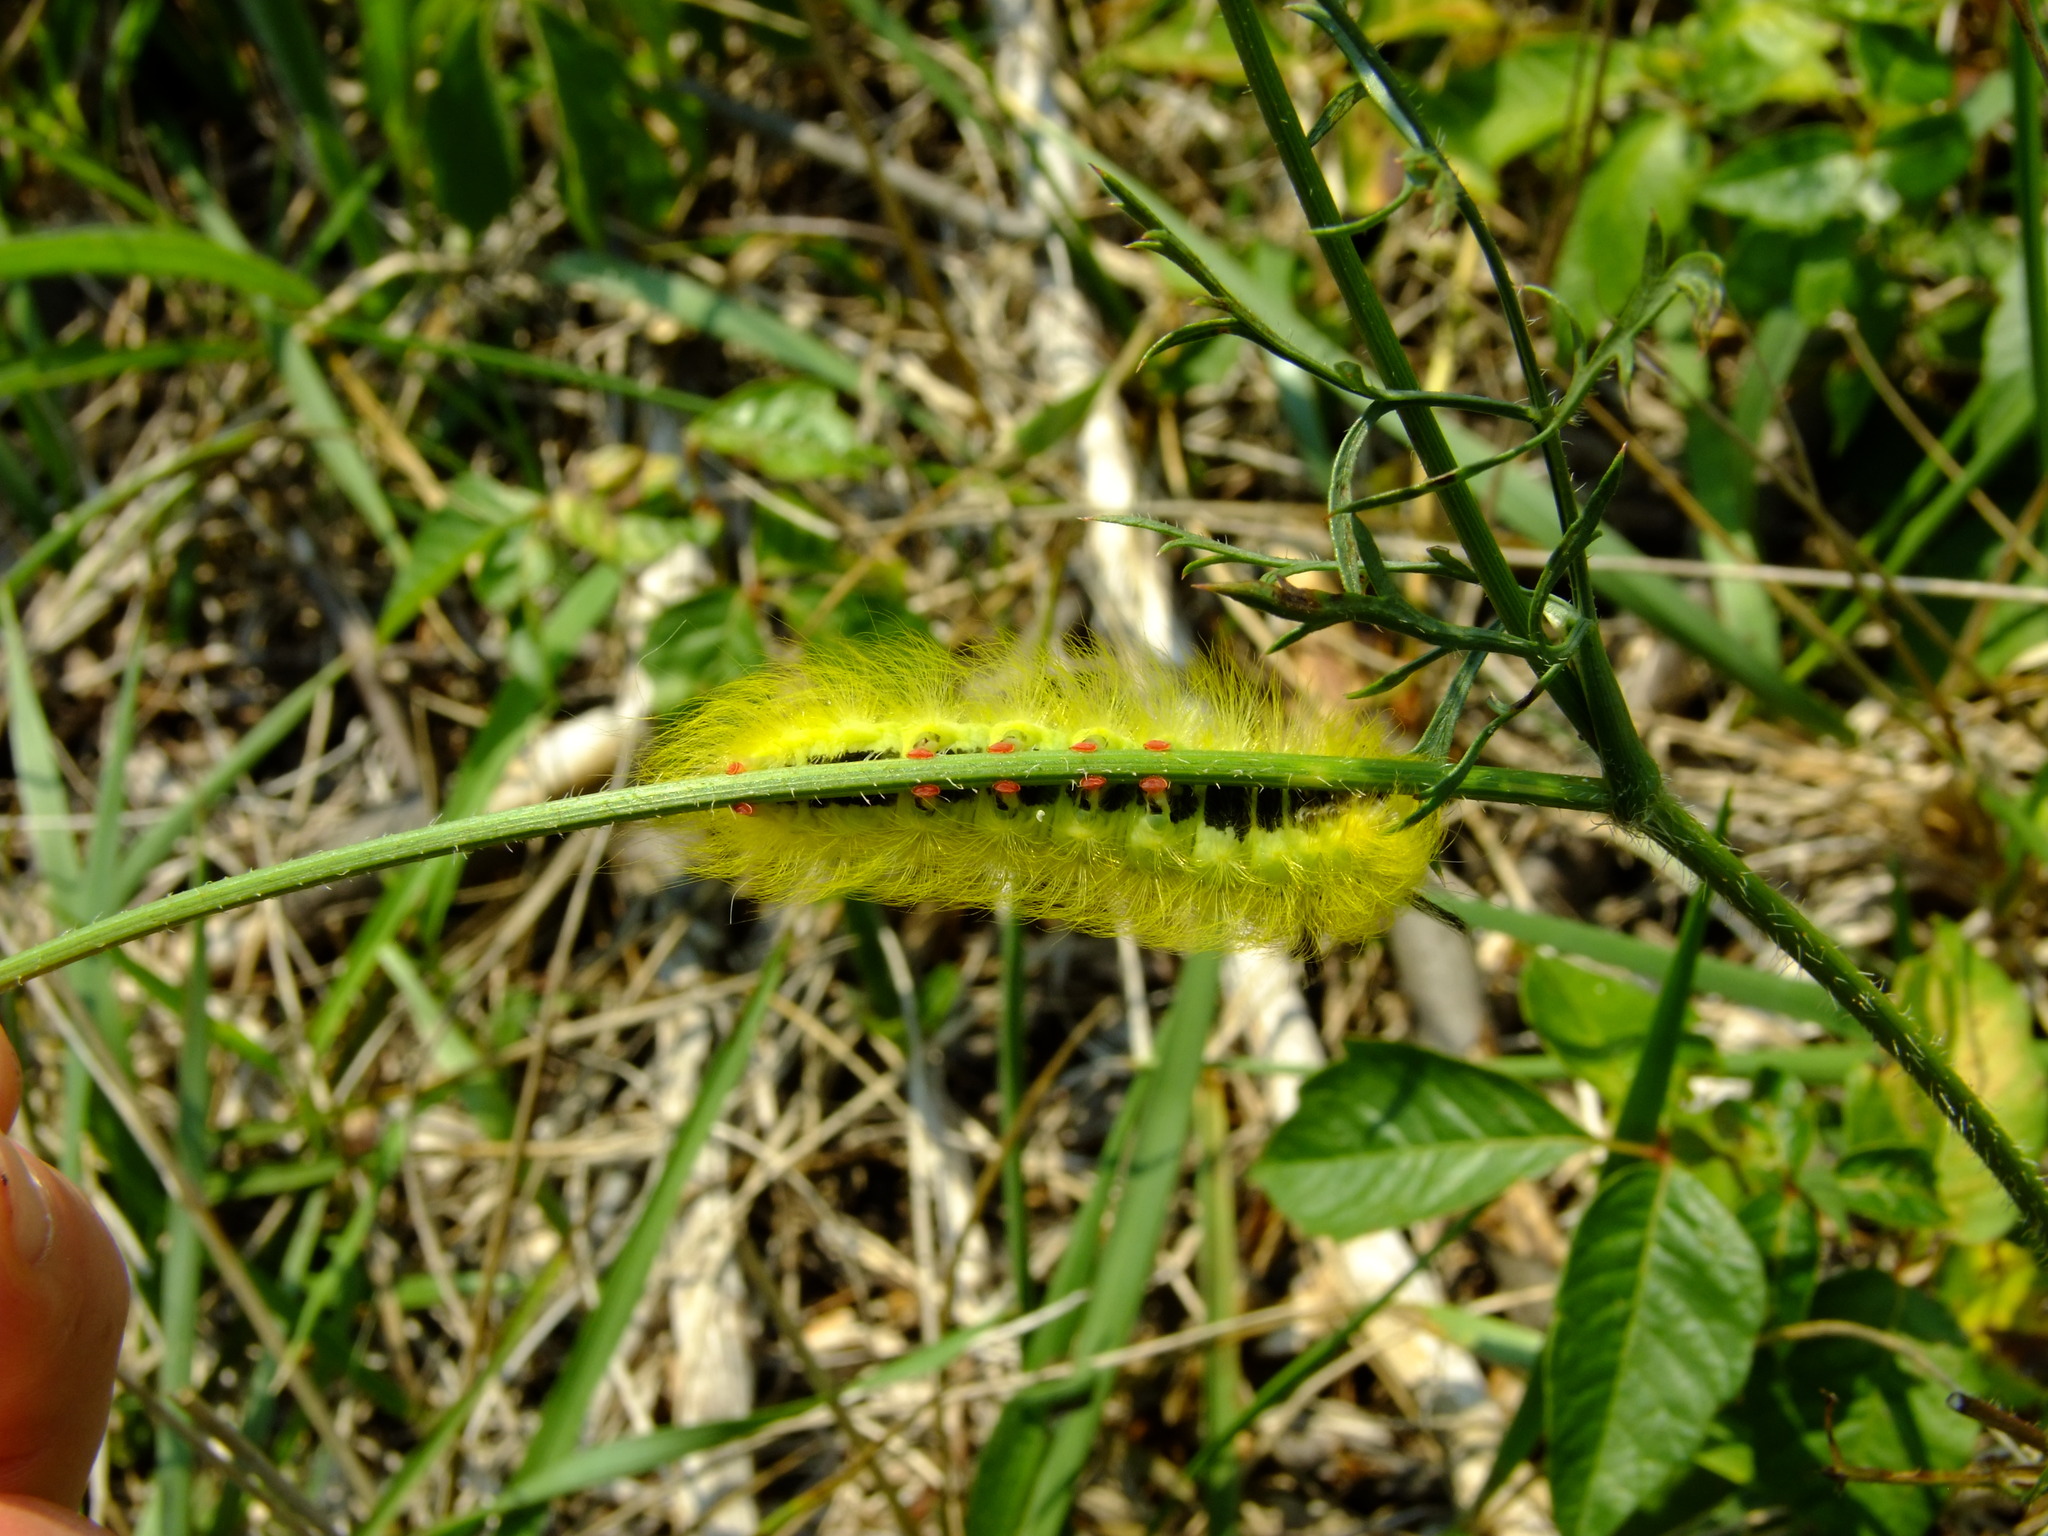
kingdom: Animalia
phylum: Arthropoda
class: Insecta
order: Lepidoptera
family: Apatelodidae
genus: Hygrochroa
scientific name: Hygrochroa Apatelodes torrefacta
